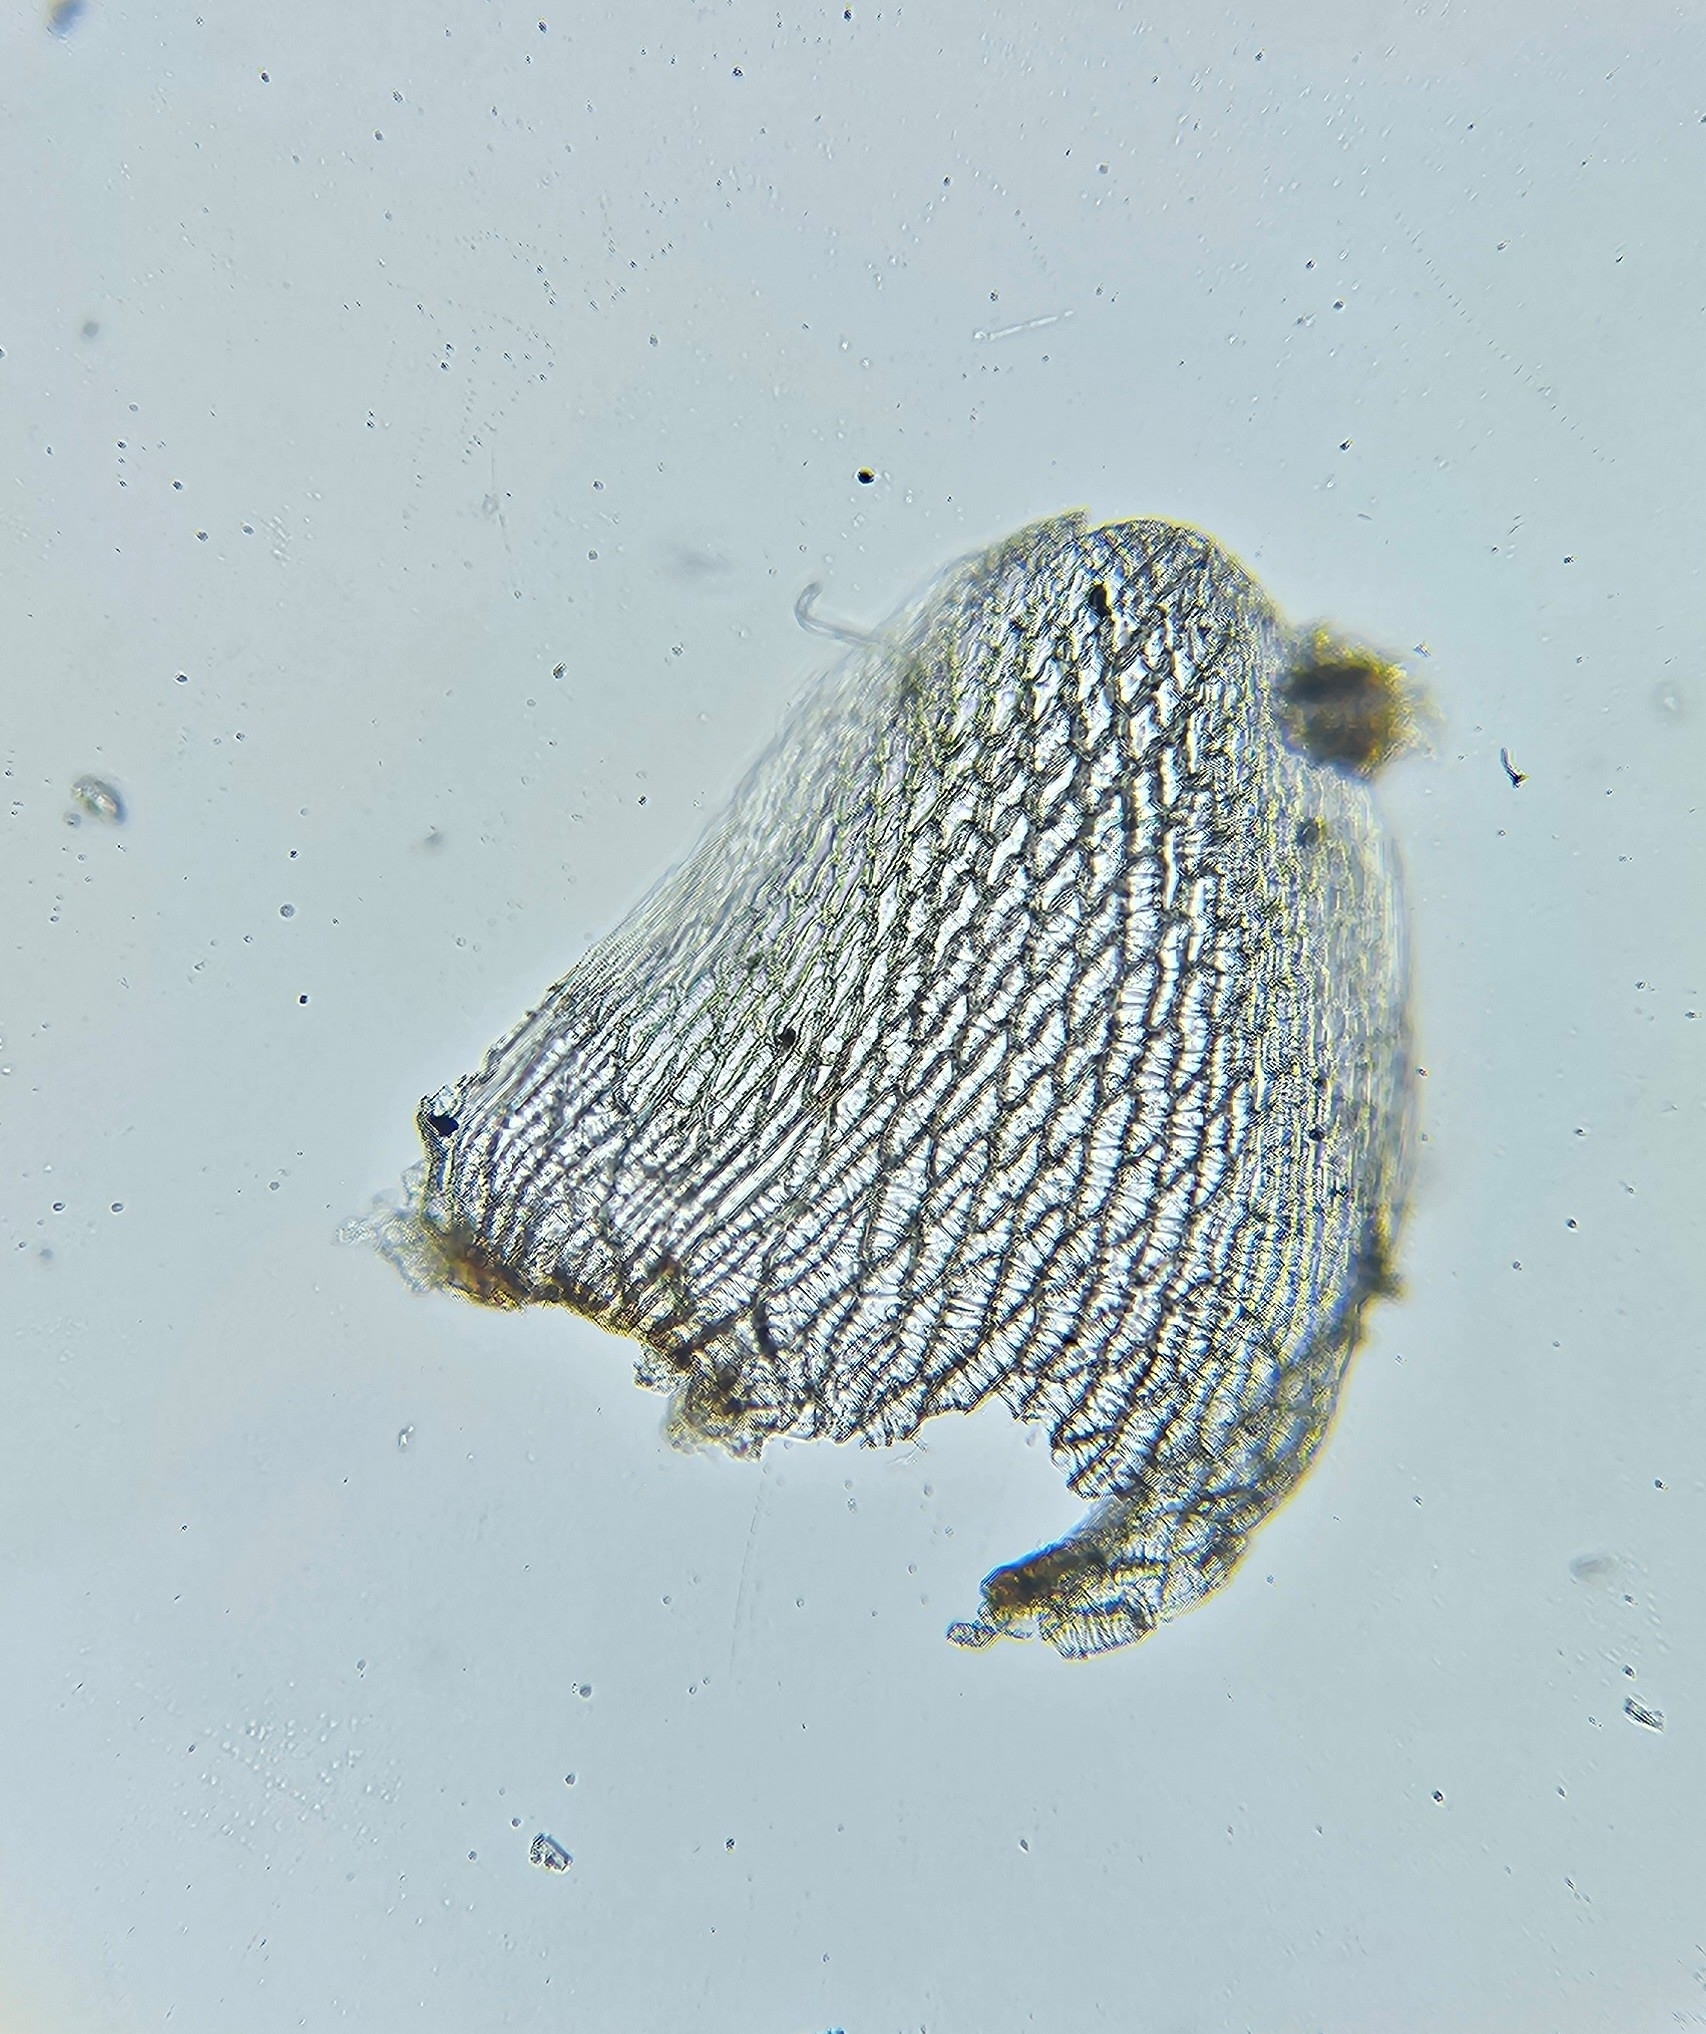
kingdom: Plantae
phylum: Bryophyta
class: Sphagnopsida
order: Sphagnales
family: Sphagnaceae
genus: Sphagnum
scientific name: Sphagnum compactum
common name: Compact peat moss
